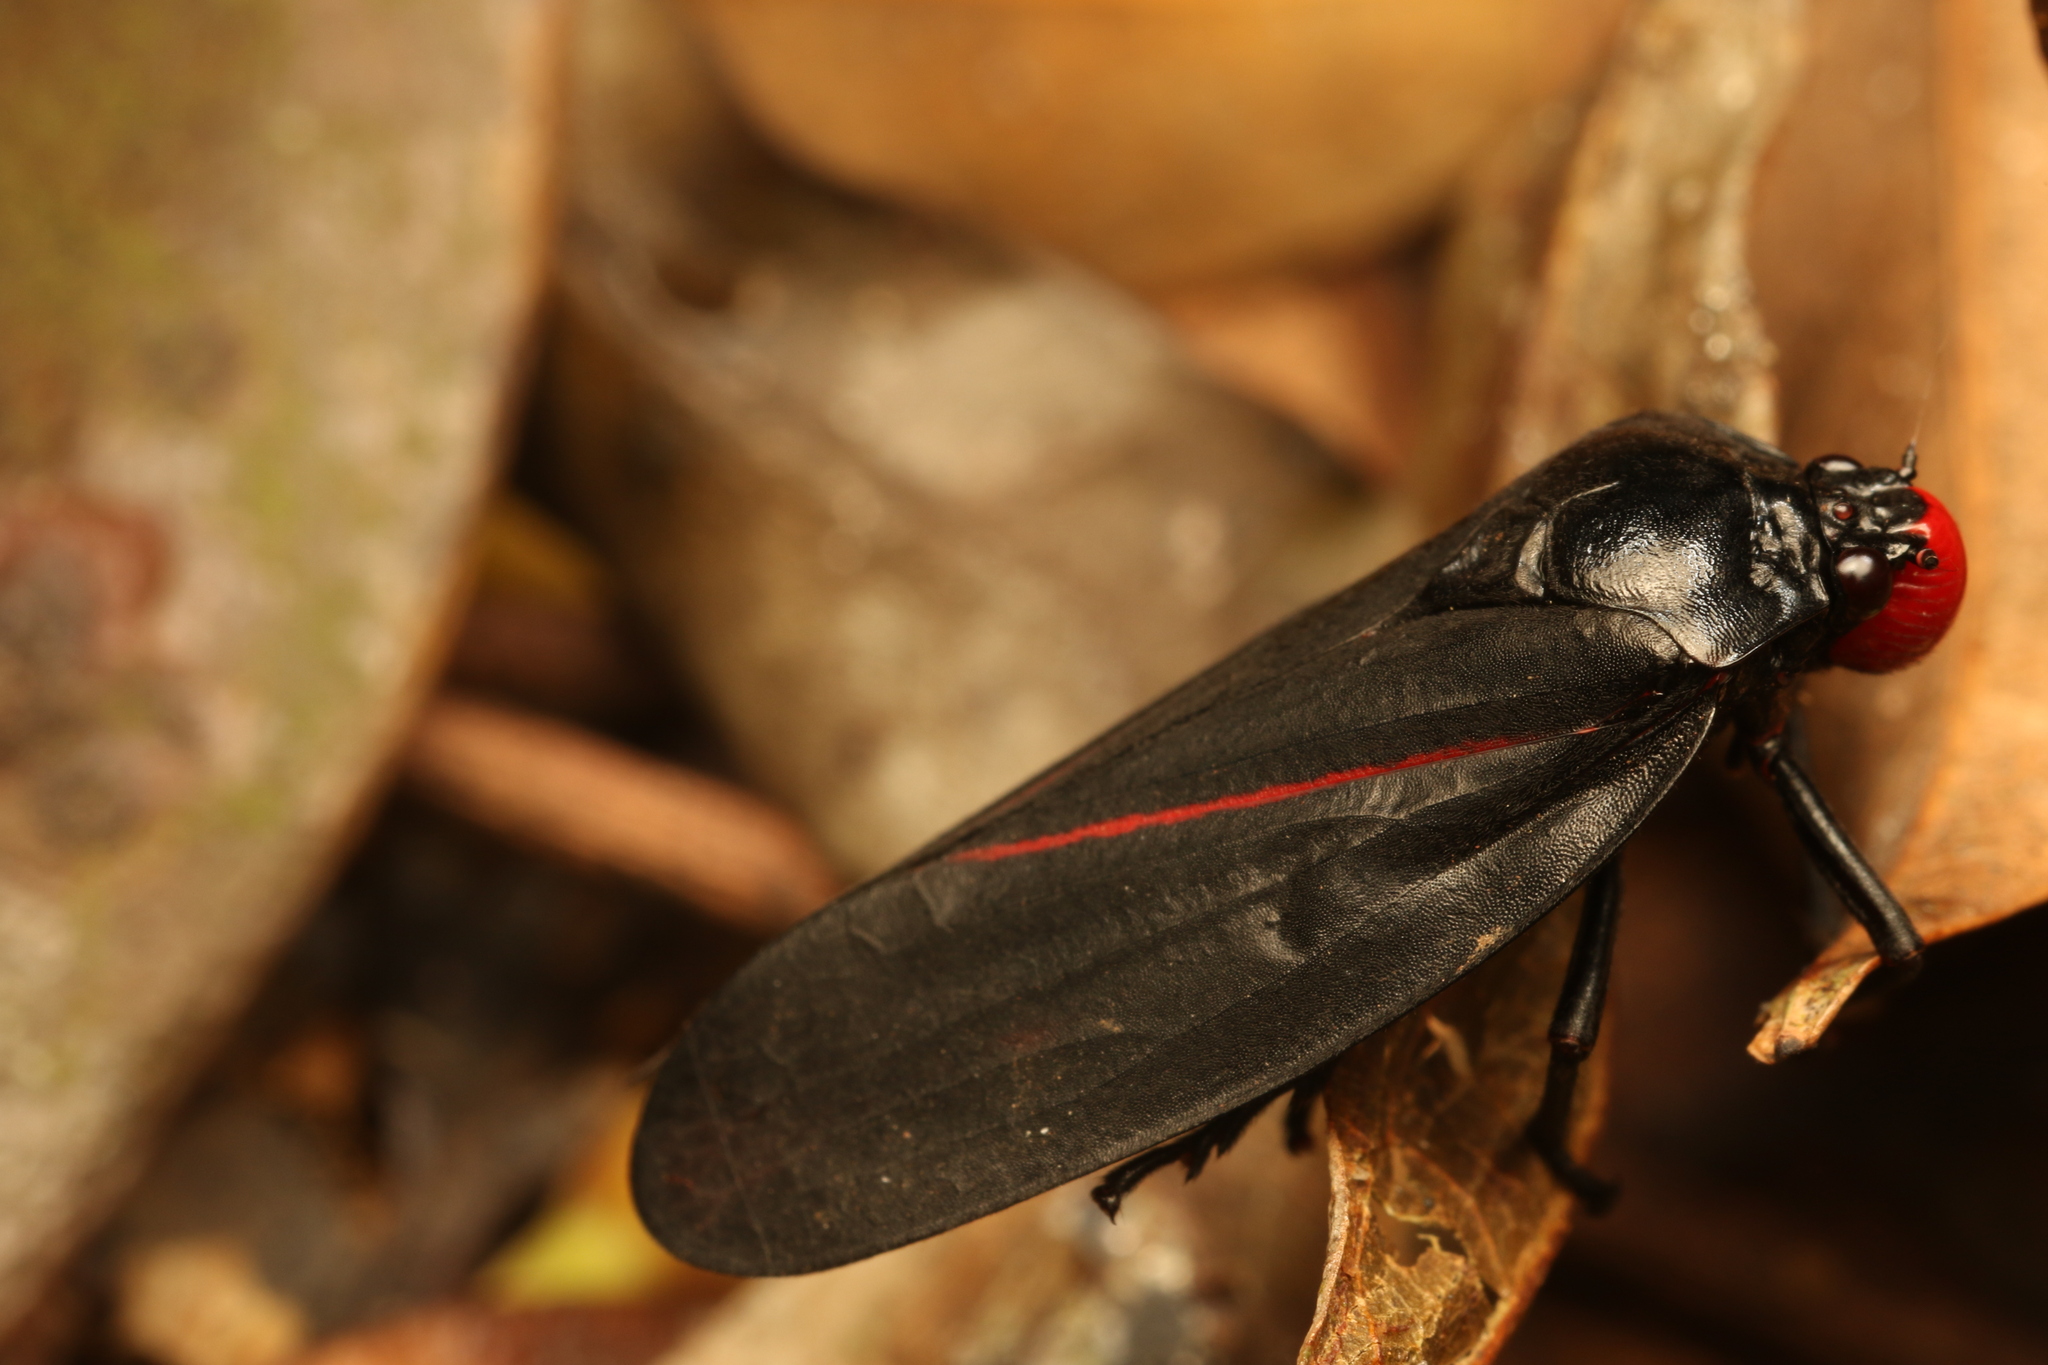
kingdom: Animalia
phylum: Arthropoda
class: Insecta
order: Hemiptera
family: Cercopidae
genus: Tomaspis
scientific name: Tomaspis furcata
